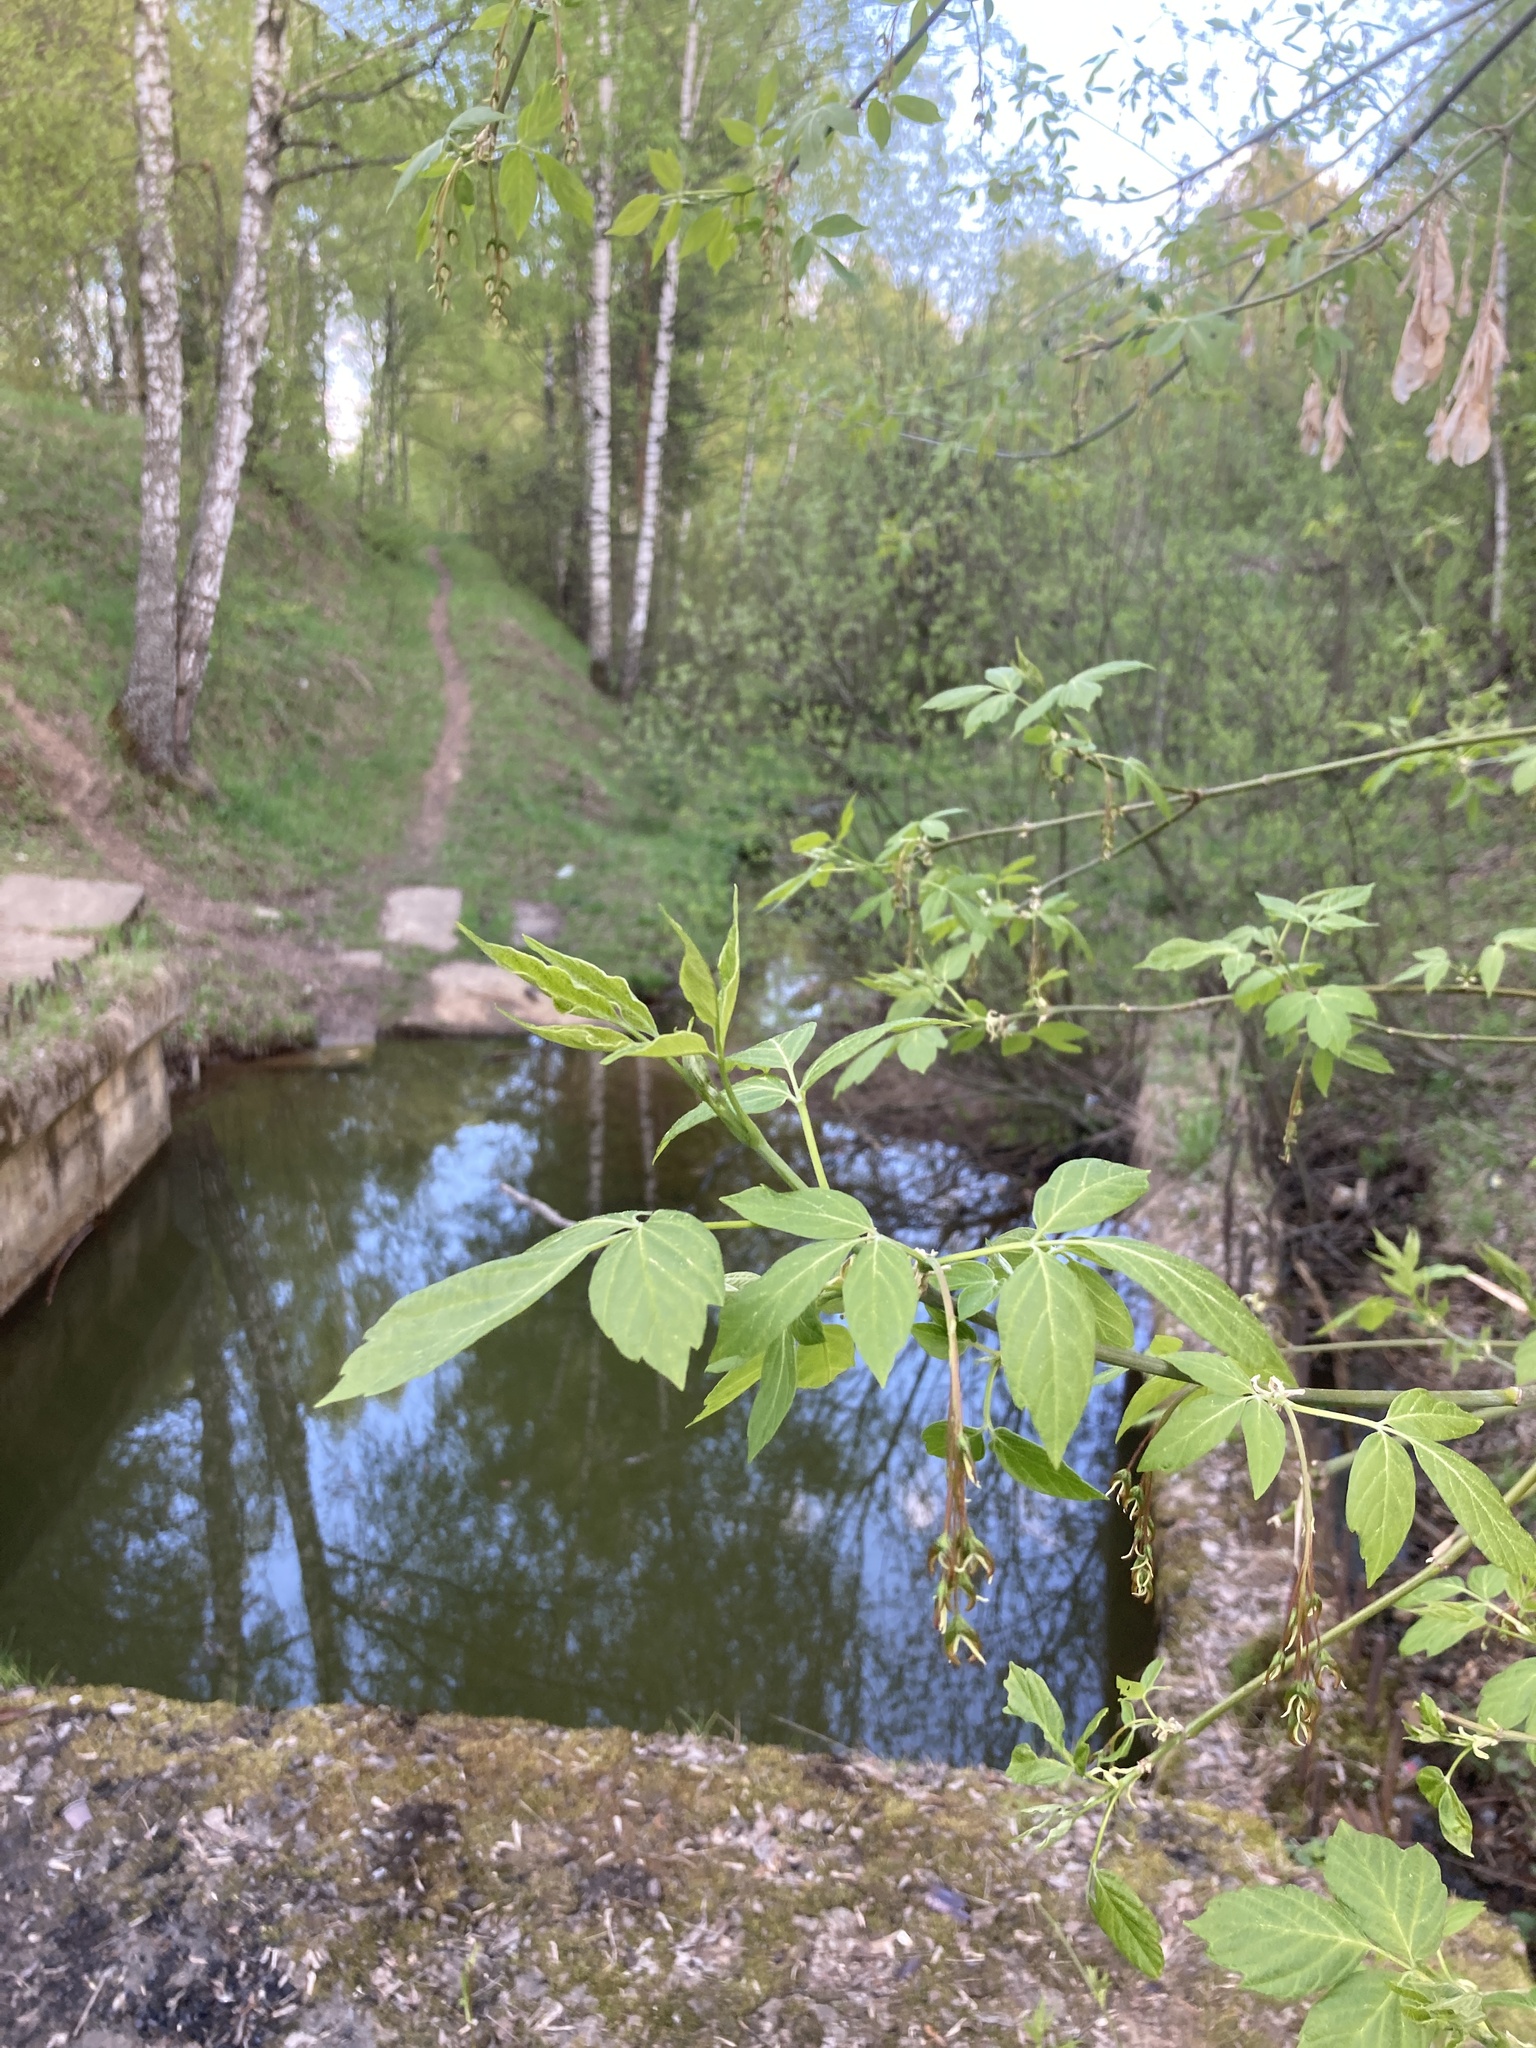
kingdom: Plantae
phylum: Tracheophyta
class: Magnoliopsida
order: Sapindales
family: Sapindaceae
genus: Acer
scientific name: Acer negundo
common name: Ashleaf maple
